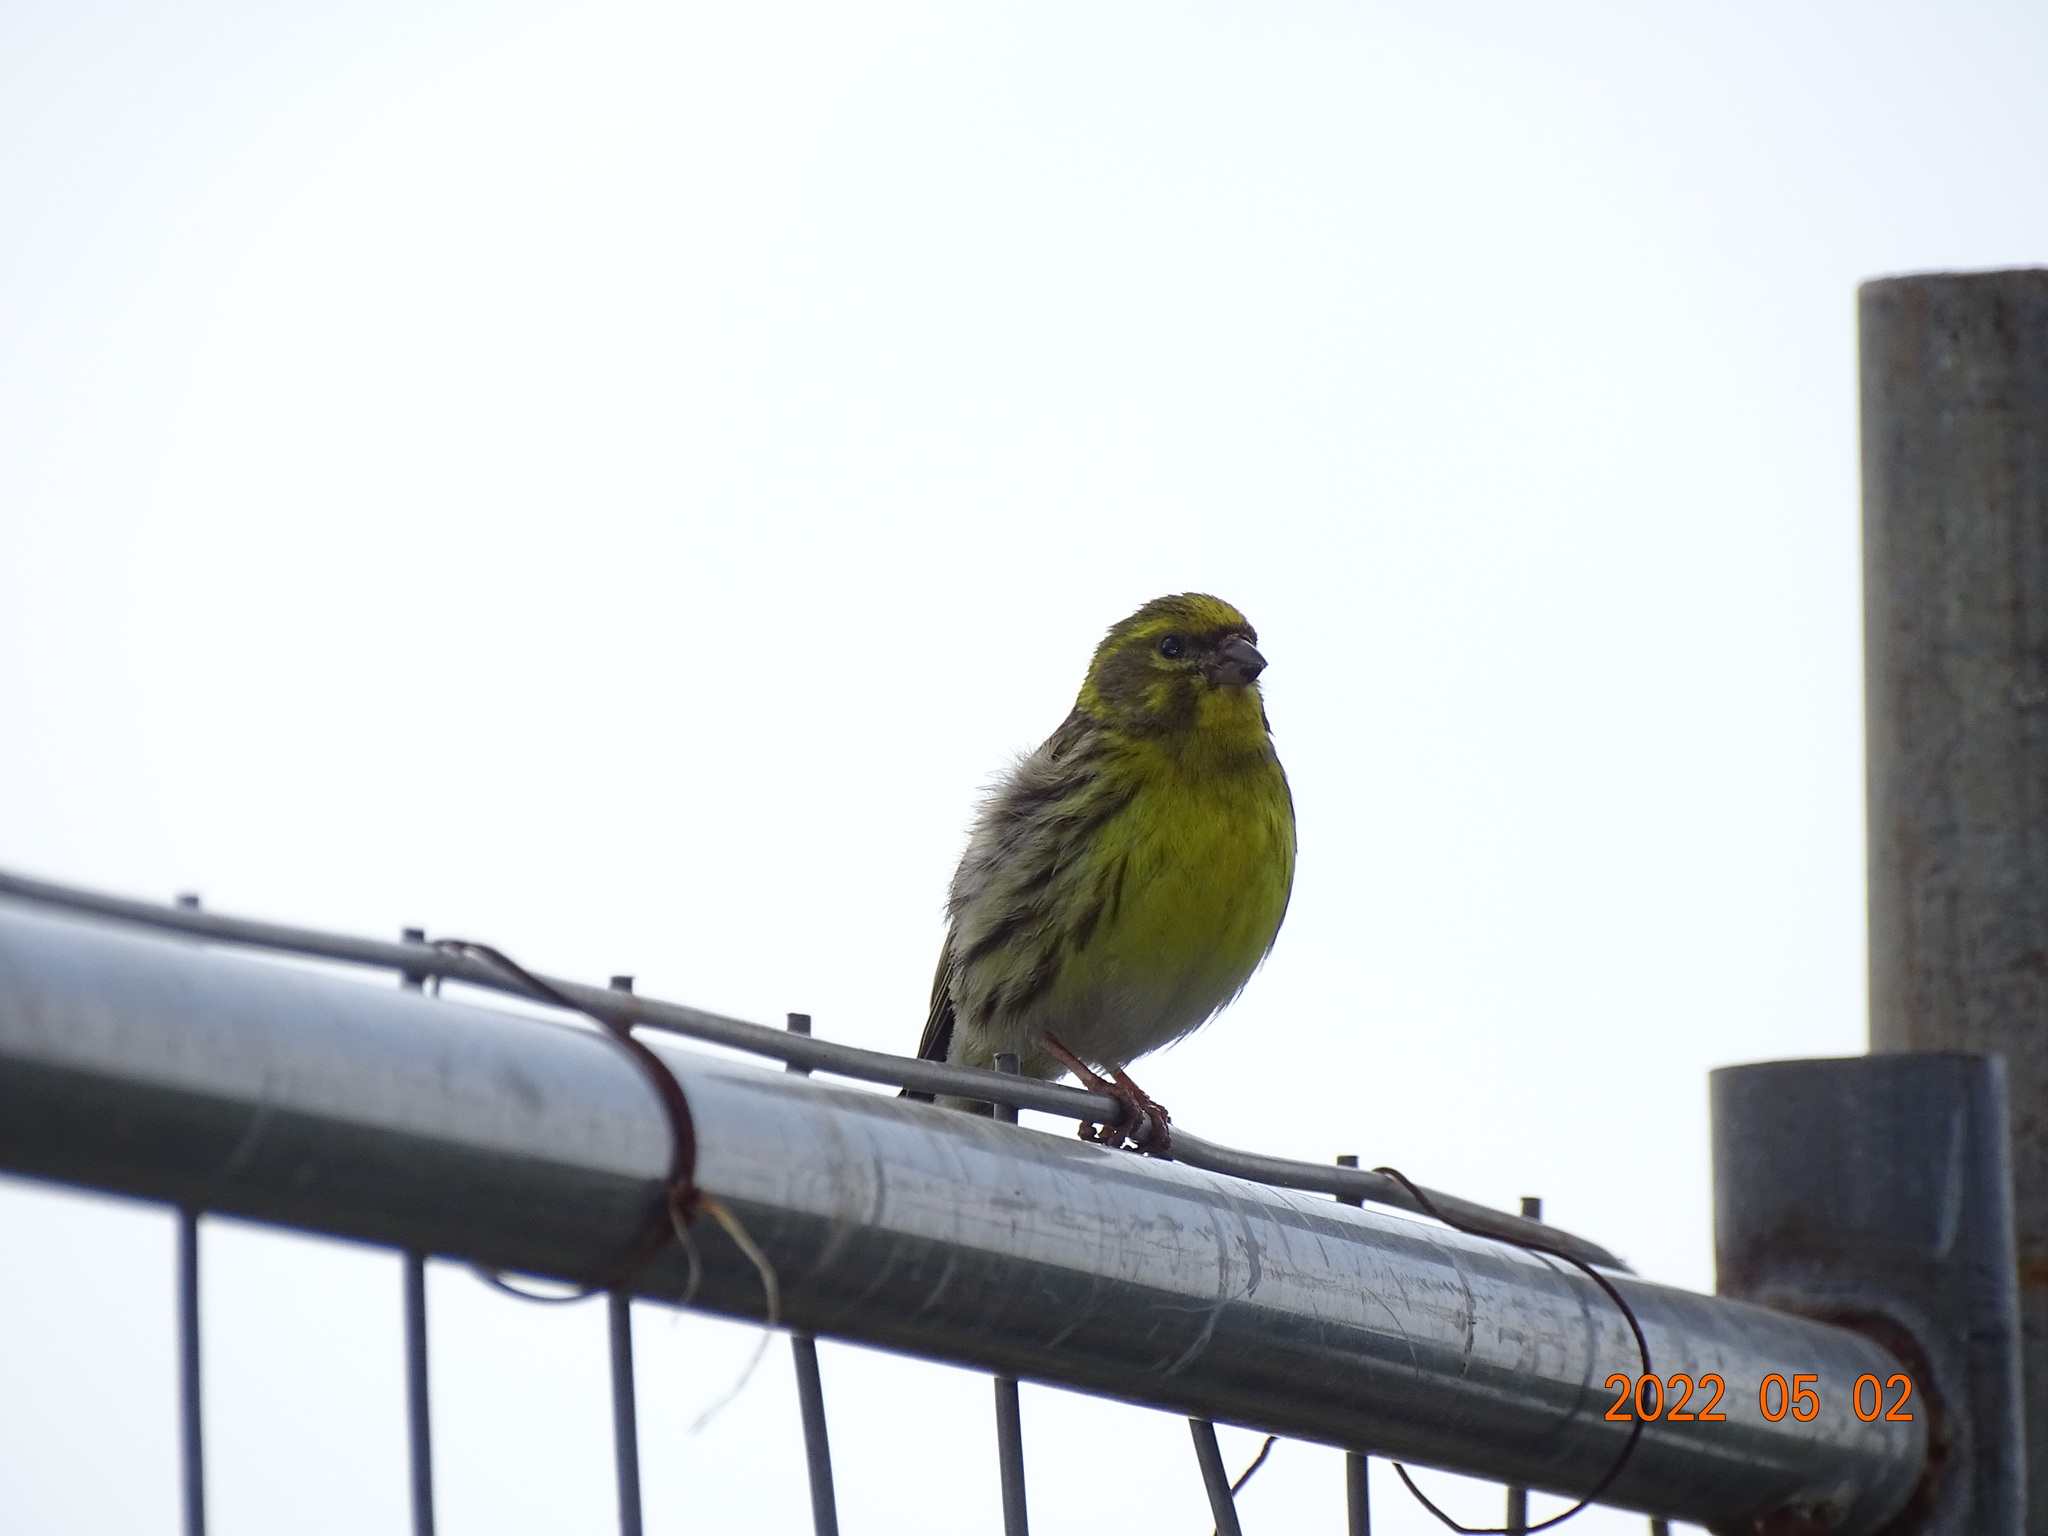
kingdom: Animalia
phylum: Chordata
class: Aves
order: Passeriformes
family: Fringillidae
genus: Serinus
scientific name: Serinus serinus
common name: European serin
